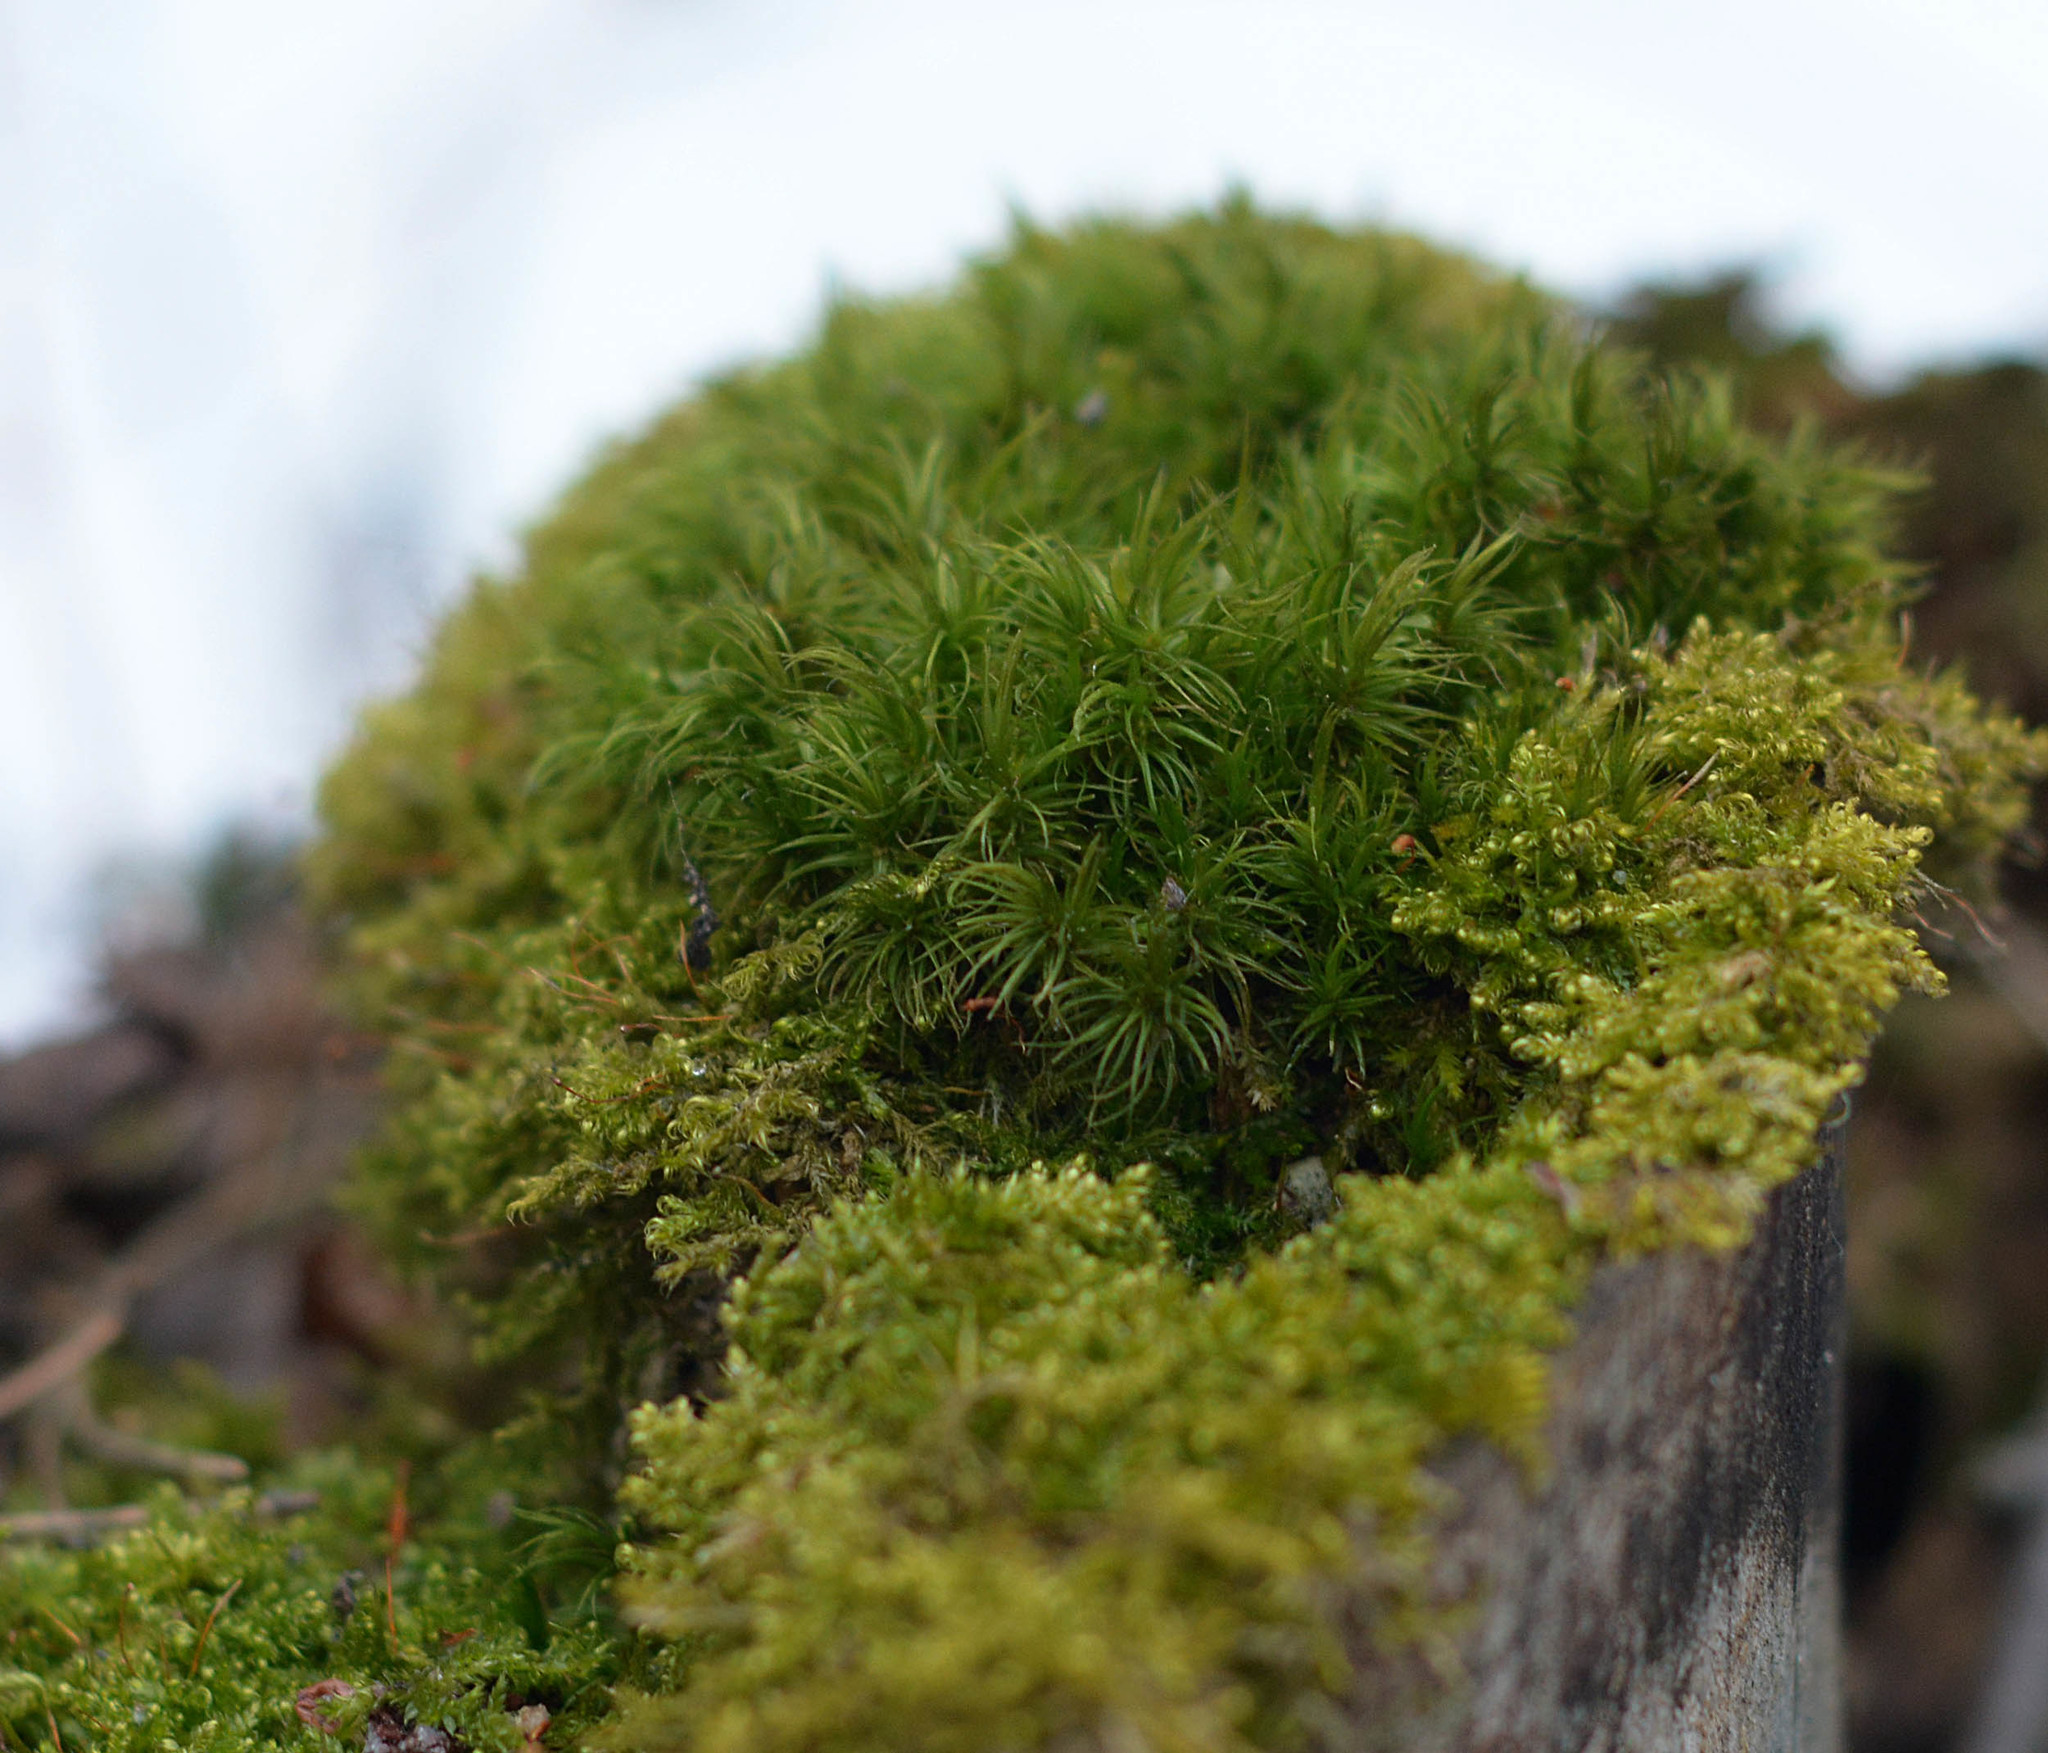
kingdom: Plantae
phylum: Bryophyta
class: Bryopsida
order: Dicranales
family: Dicranaceae
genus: Dicranum
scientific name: Dicranum scoparium
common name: Broom fork-moss
